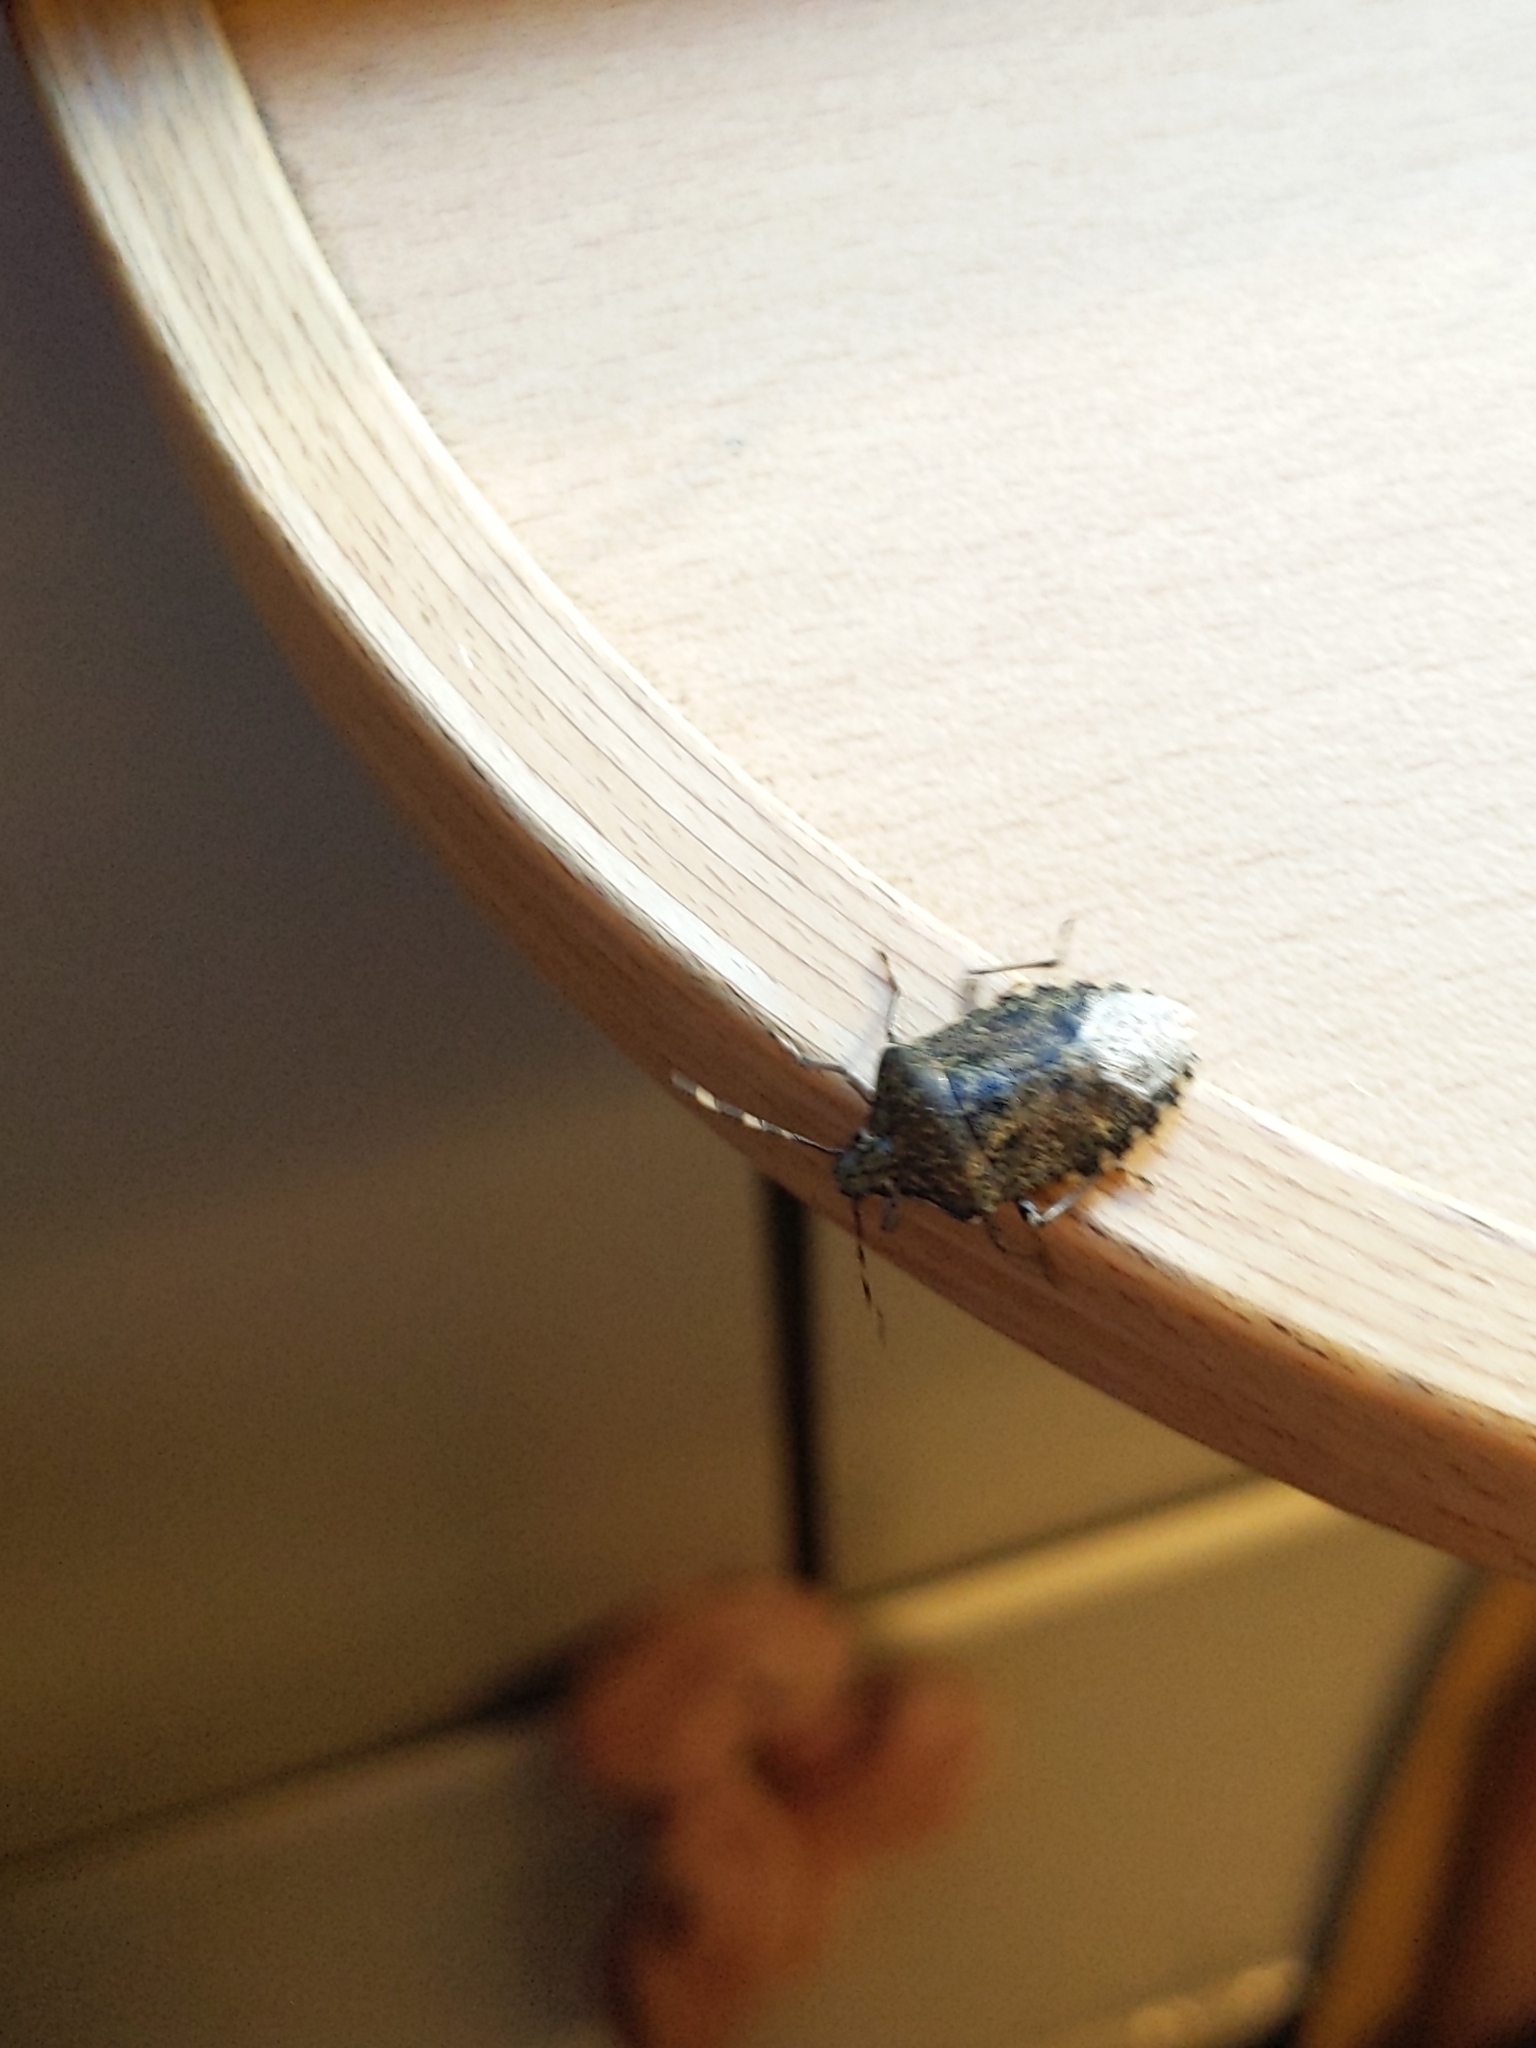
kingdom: Animalia
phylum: Arthropoda
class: Insecta
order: Hemiptera
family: Pentatomidae
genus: Rhaphigaster
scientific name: Rhaphigaster nebulosa
